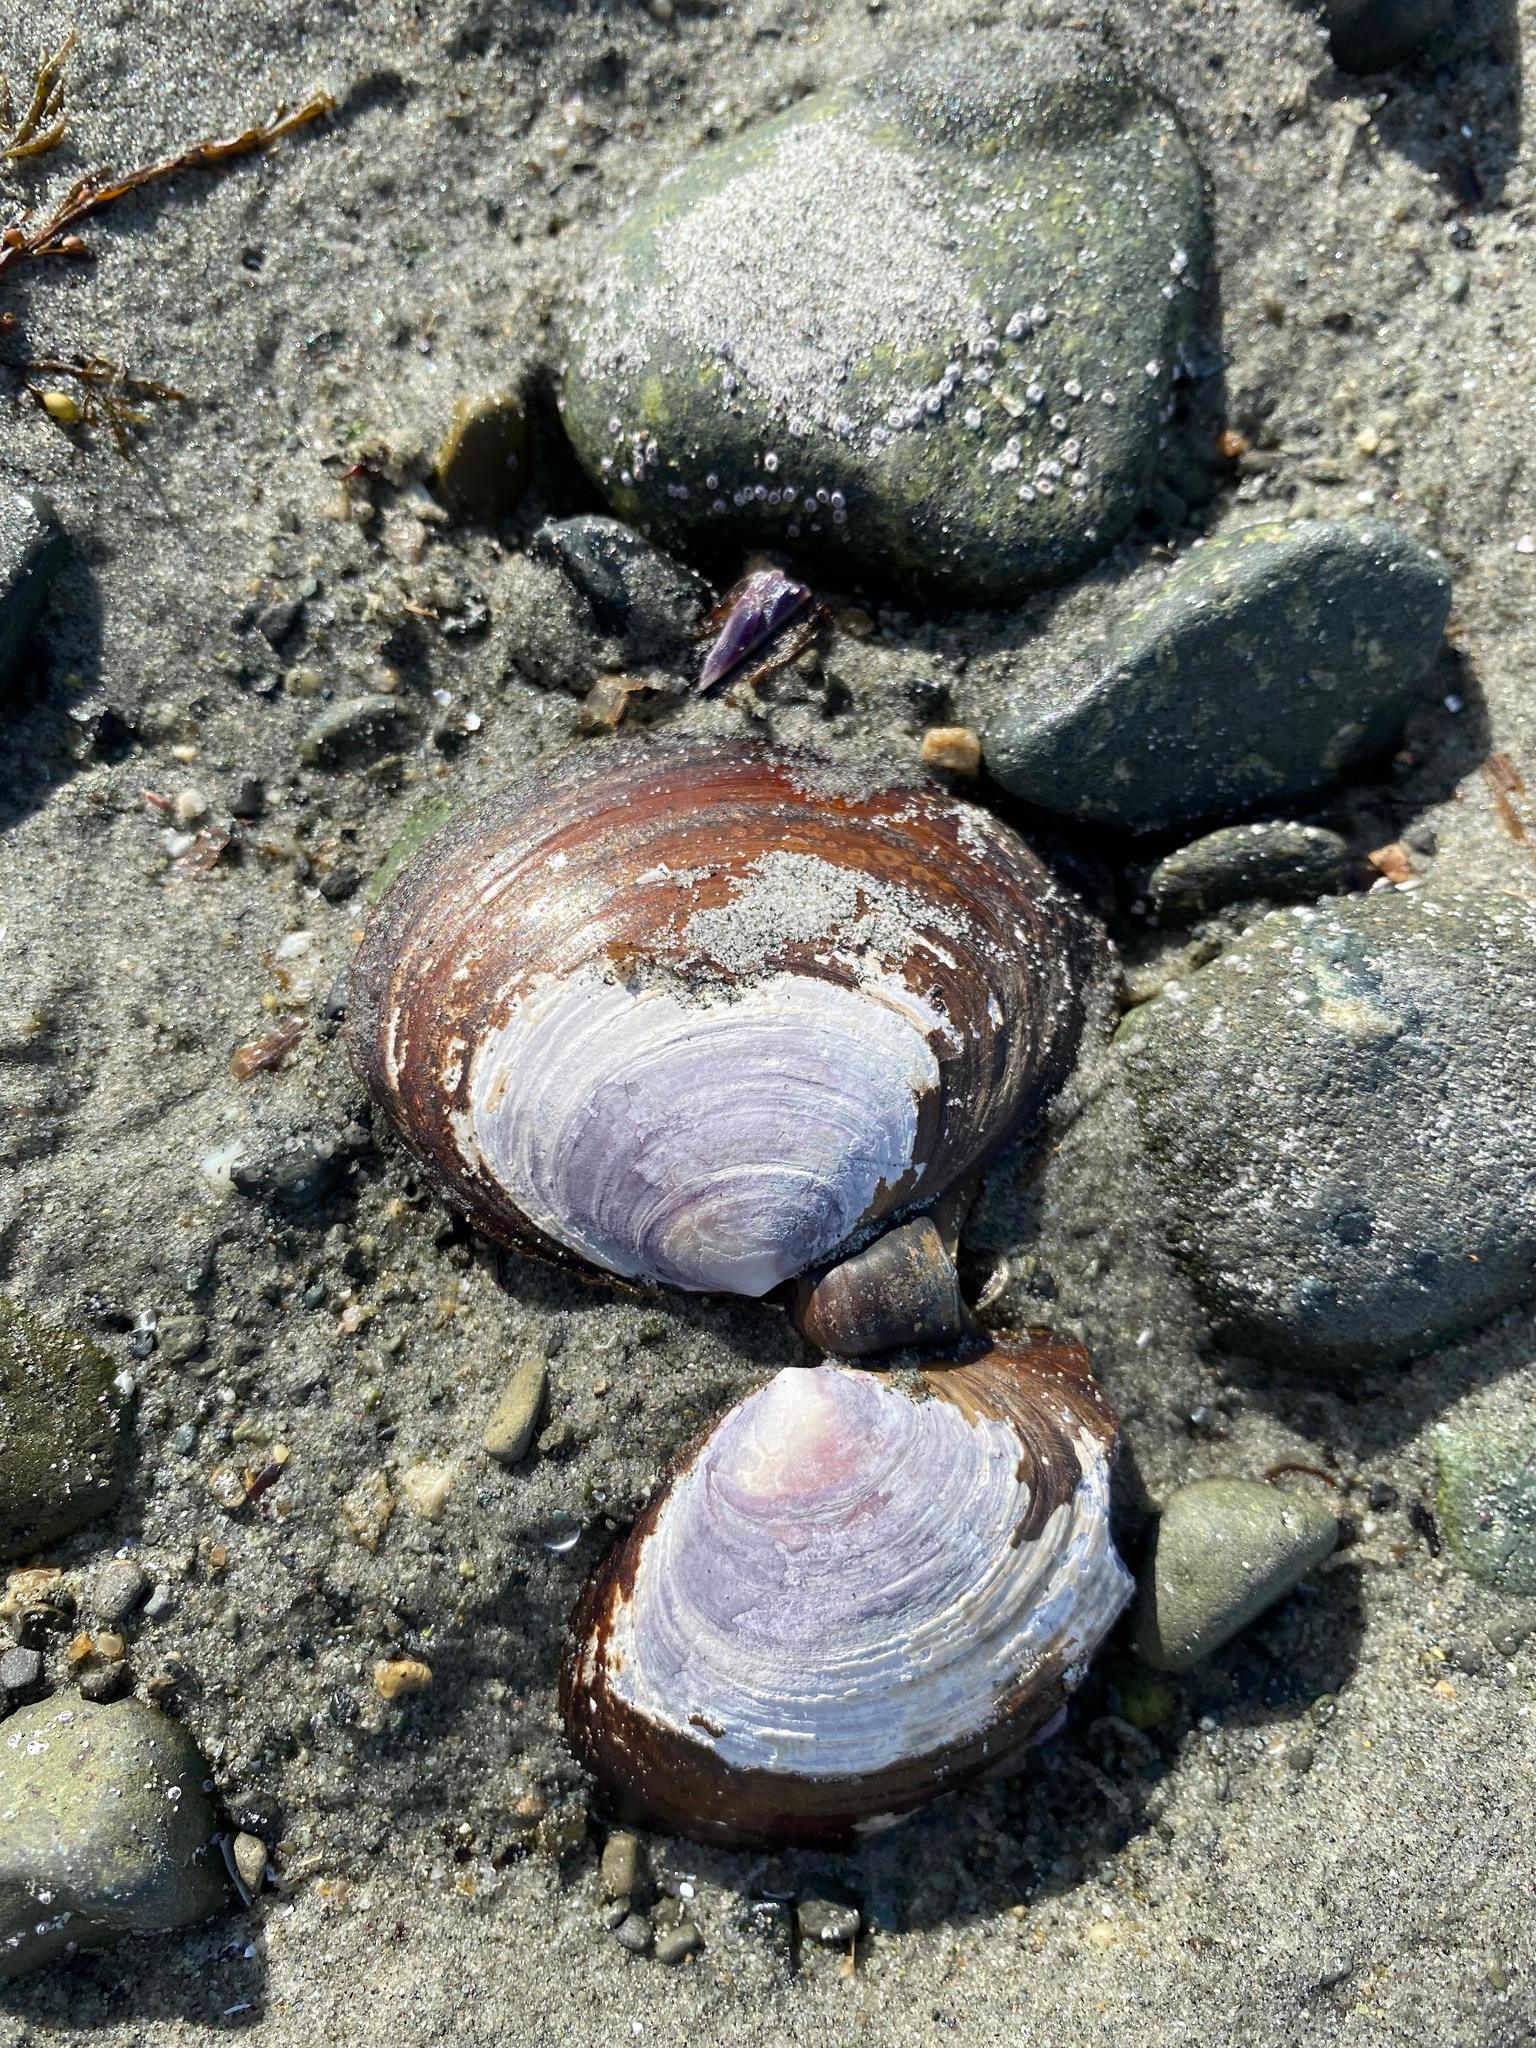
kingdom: Animalia
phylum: Mollusca
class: Bivalvia
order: Cardiida
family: Psammobiidae
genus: Nuttallia
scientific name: Nuttallia obscurata
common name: Purple mahogany-clam
